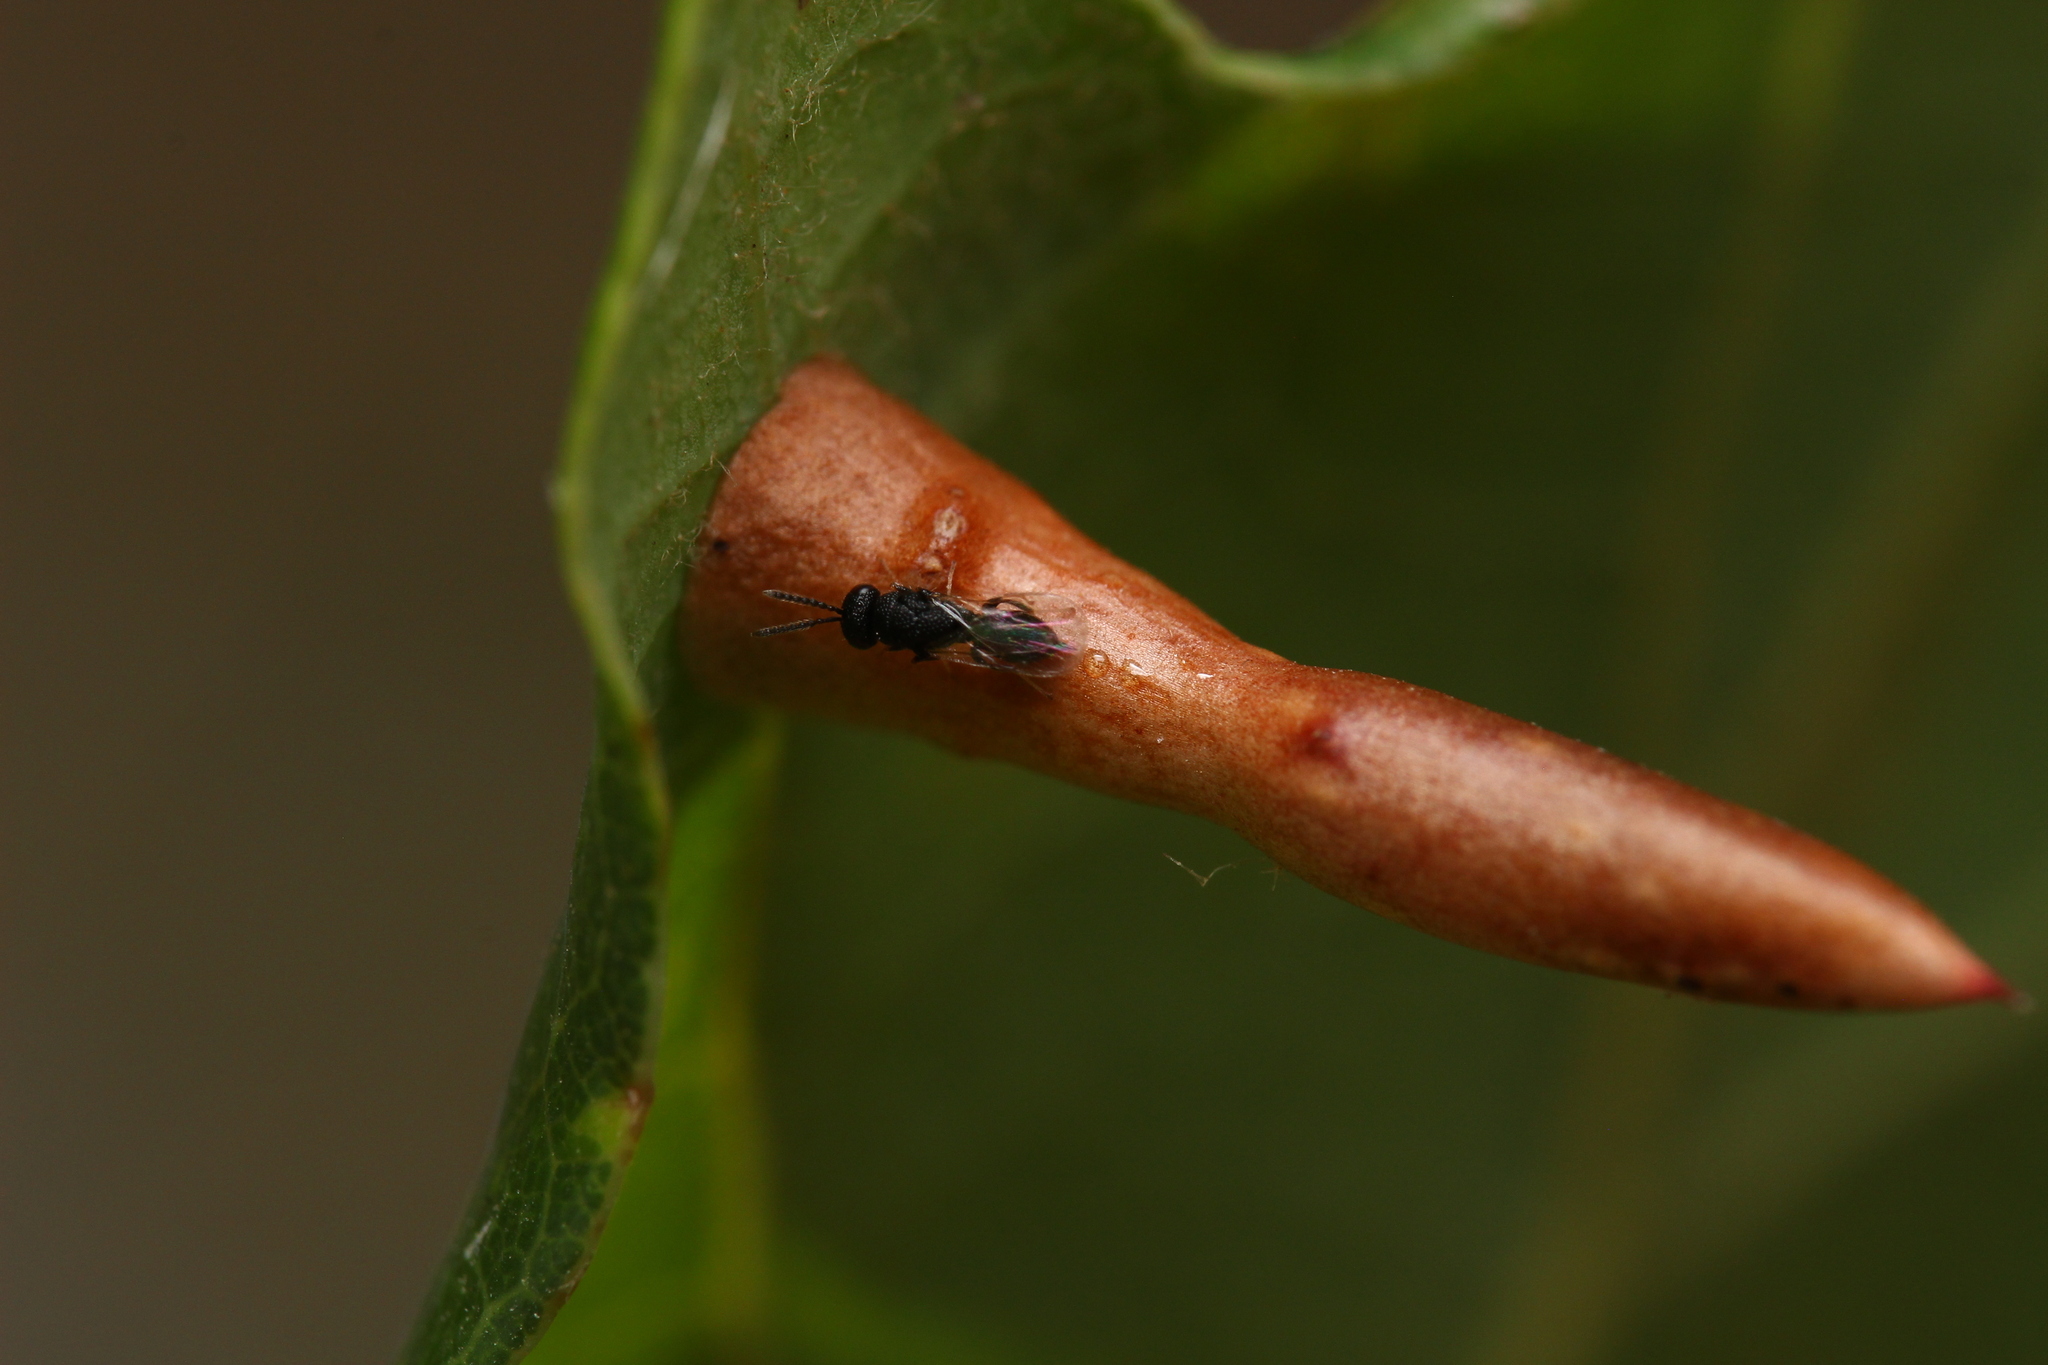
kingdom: Animalia
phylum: Arthropoda
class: Insecta
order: Hymenoptera
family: Cynipidae
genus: Cynips
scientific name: Cynips cornifex
